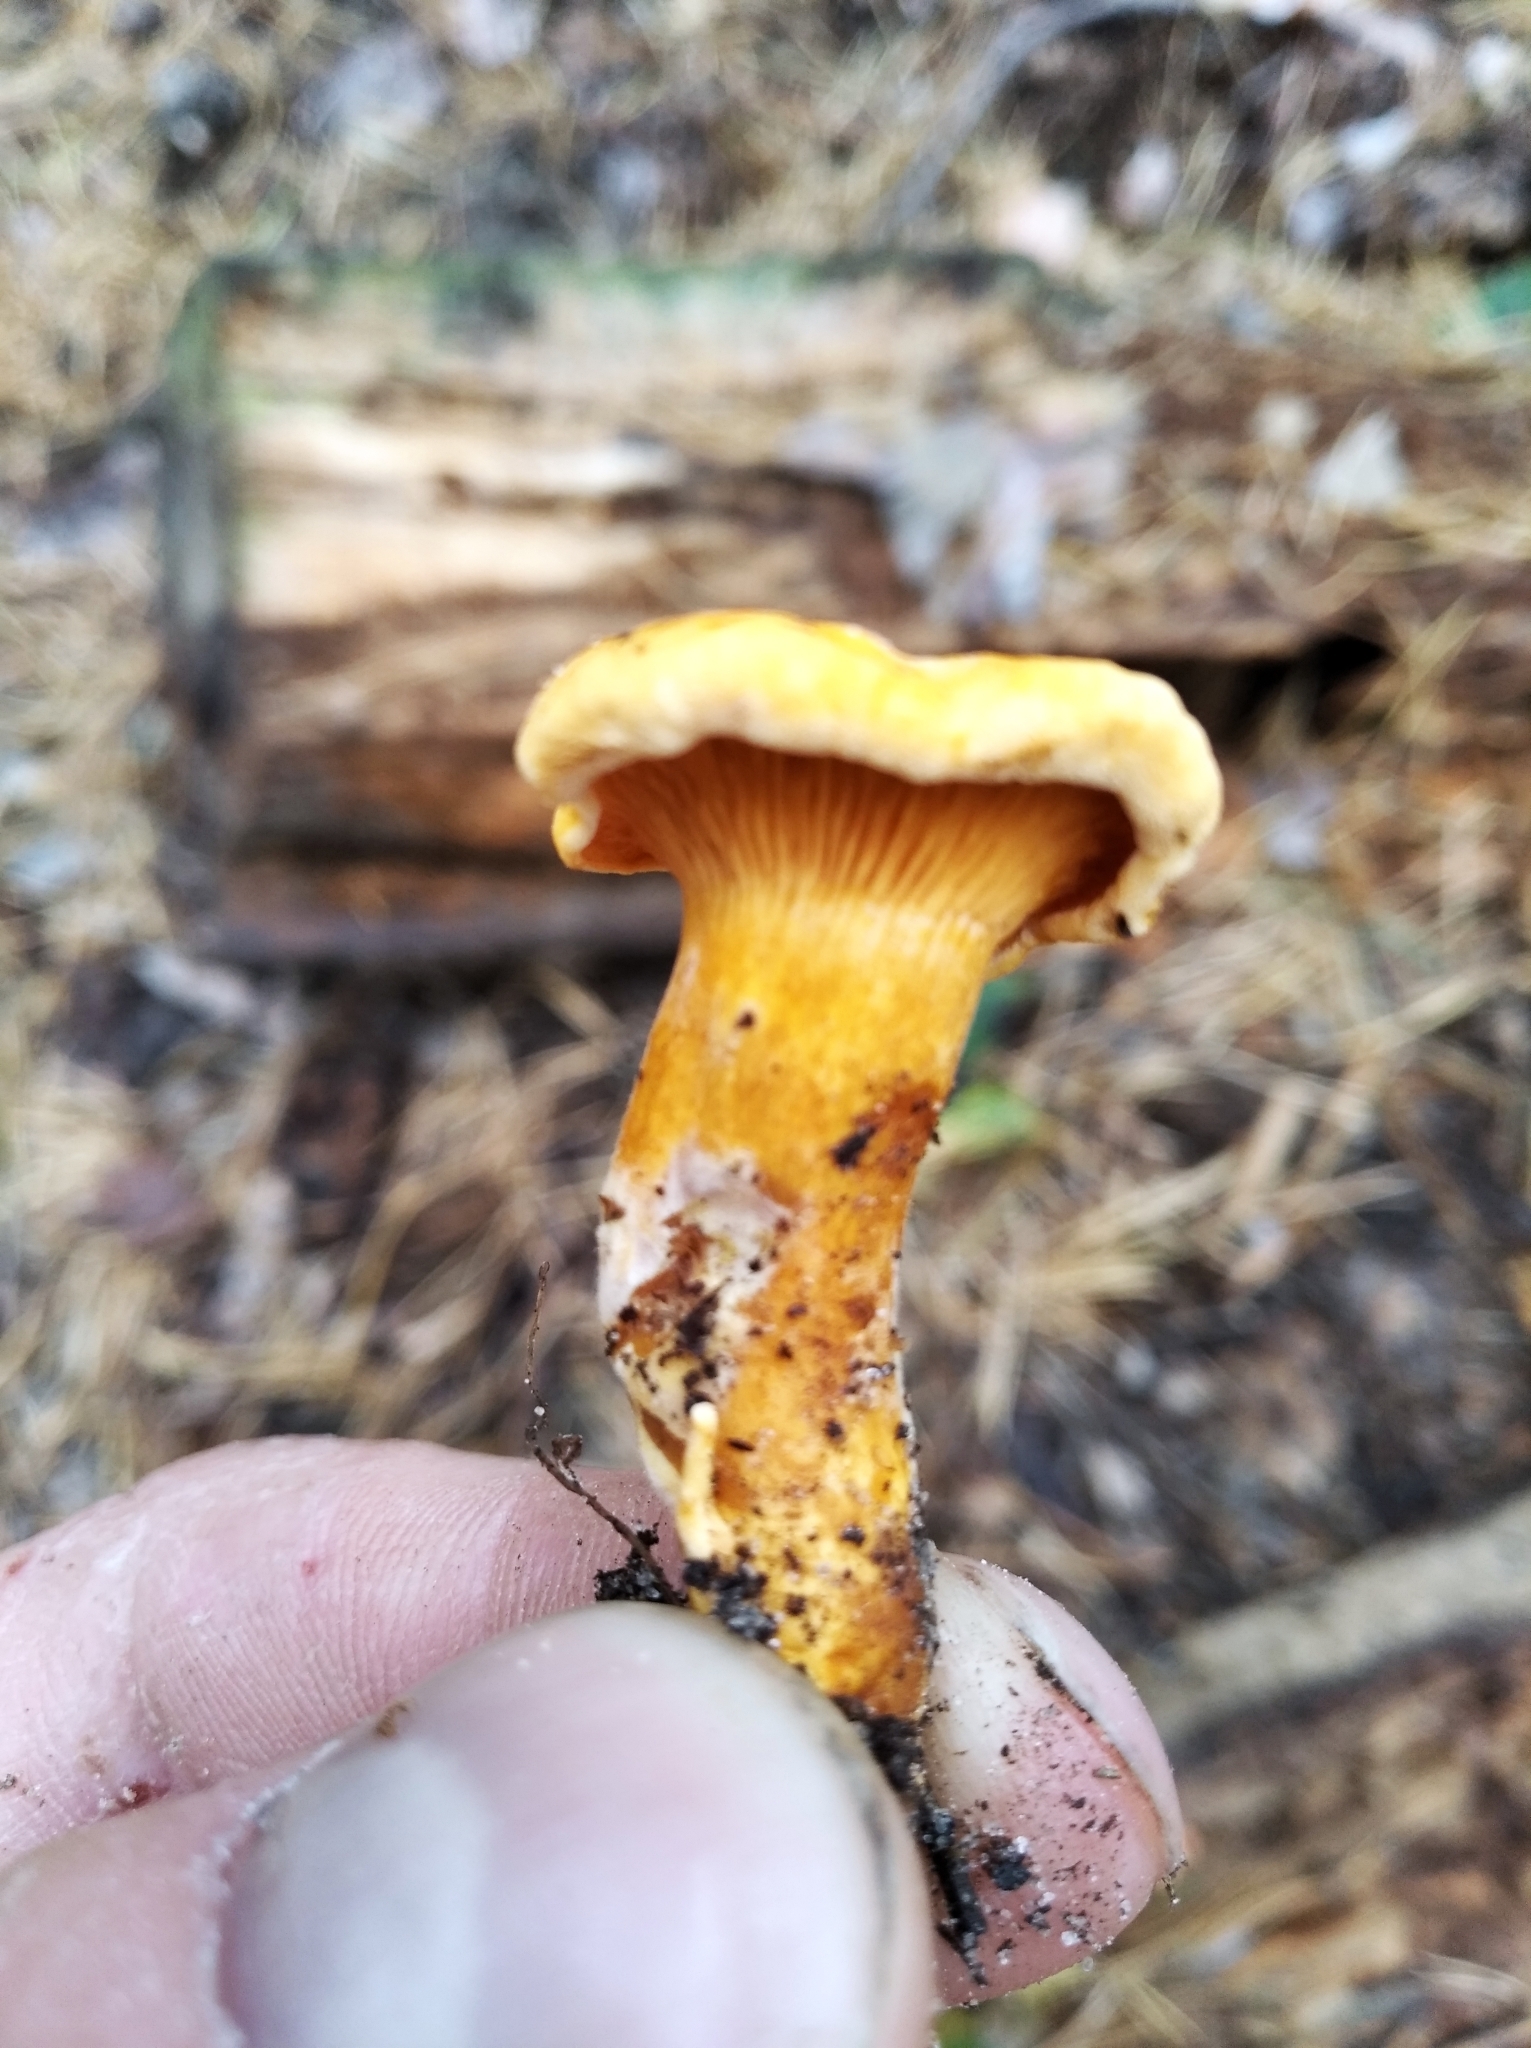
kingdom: Fungi
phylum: Basidiomycota
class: Agaricomycetes
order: Boletales
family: Hygrophoropsidaceae
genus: Hygrophoropsis
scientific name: Hygrophoropsis aurantiaca
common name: False chanterelle
